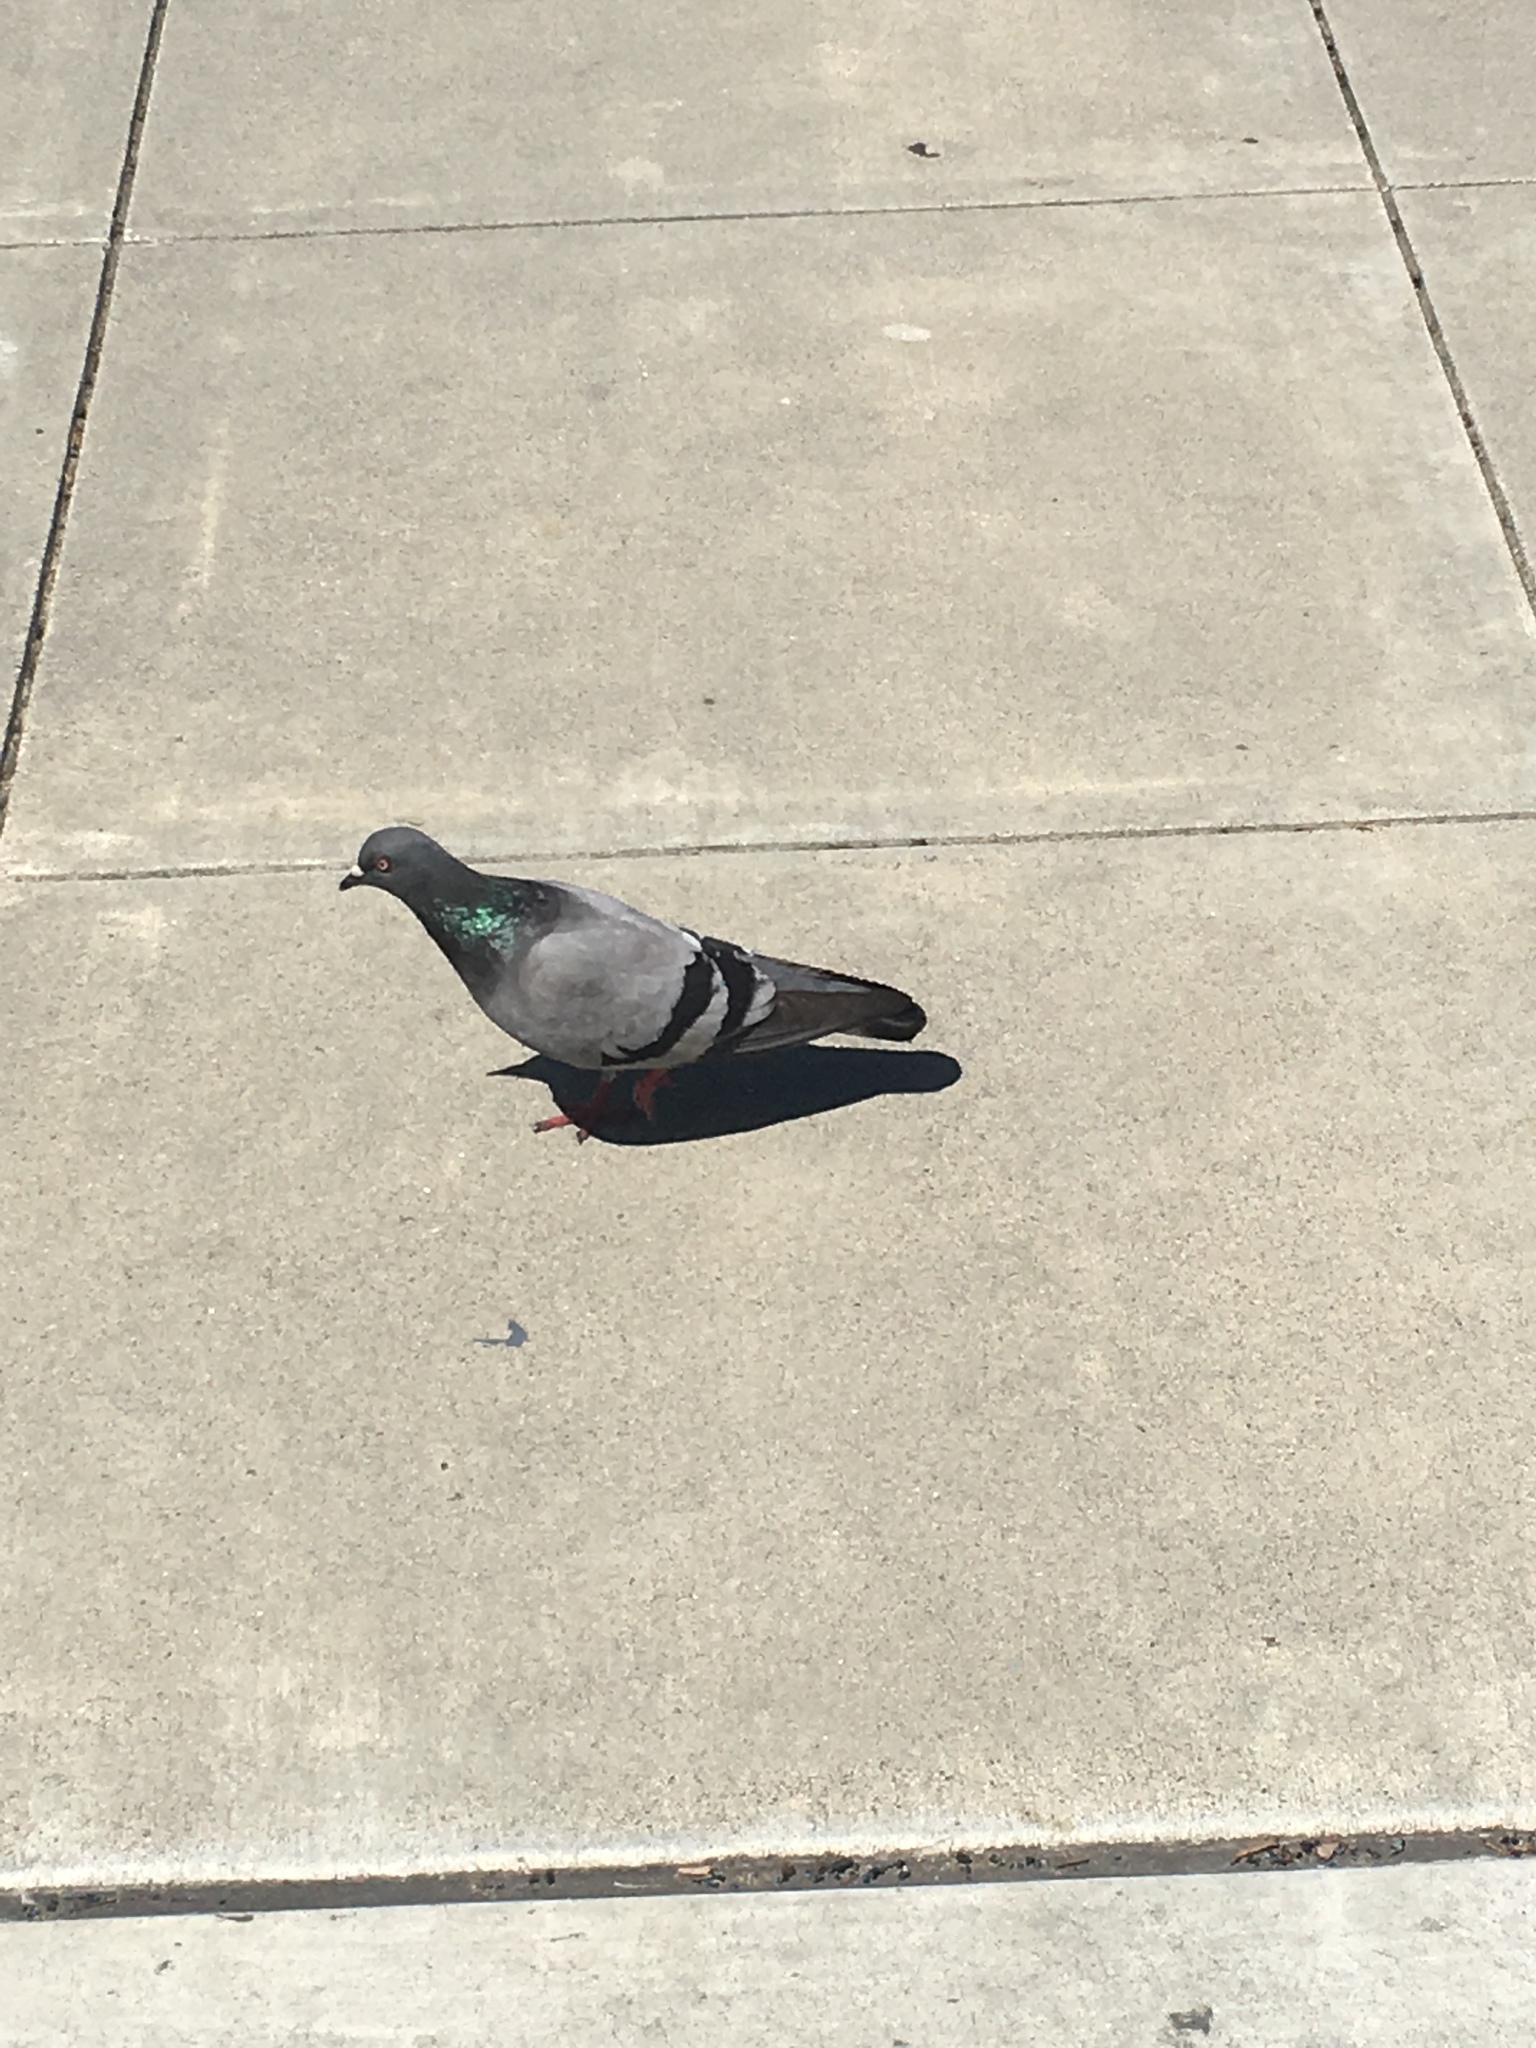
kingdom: Animalia
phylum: Chordata
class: Aves
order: Columbiformes
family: Columbidae
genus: Columba
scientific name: Columba livia
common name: Rock pigeon
